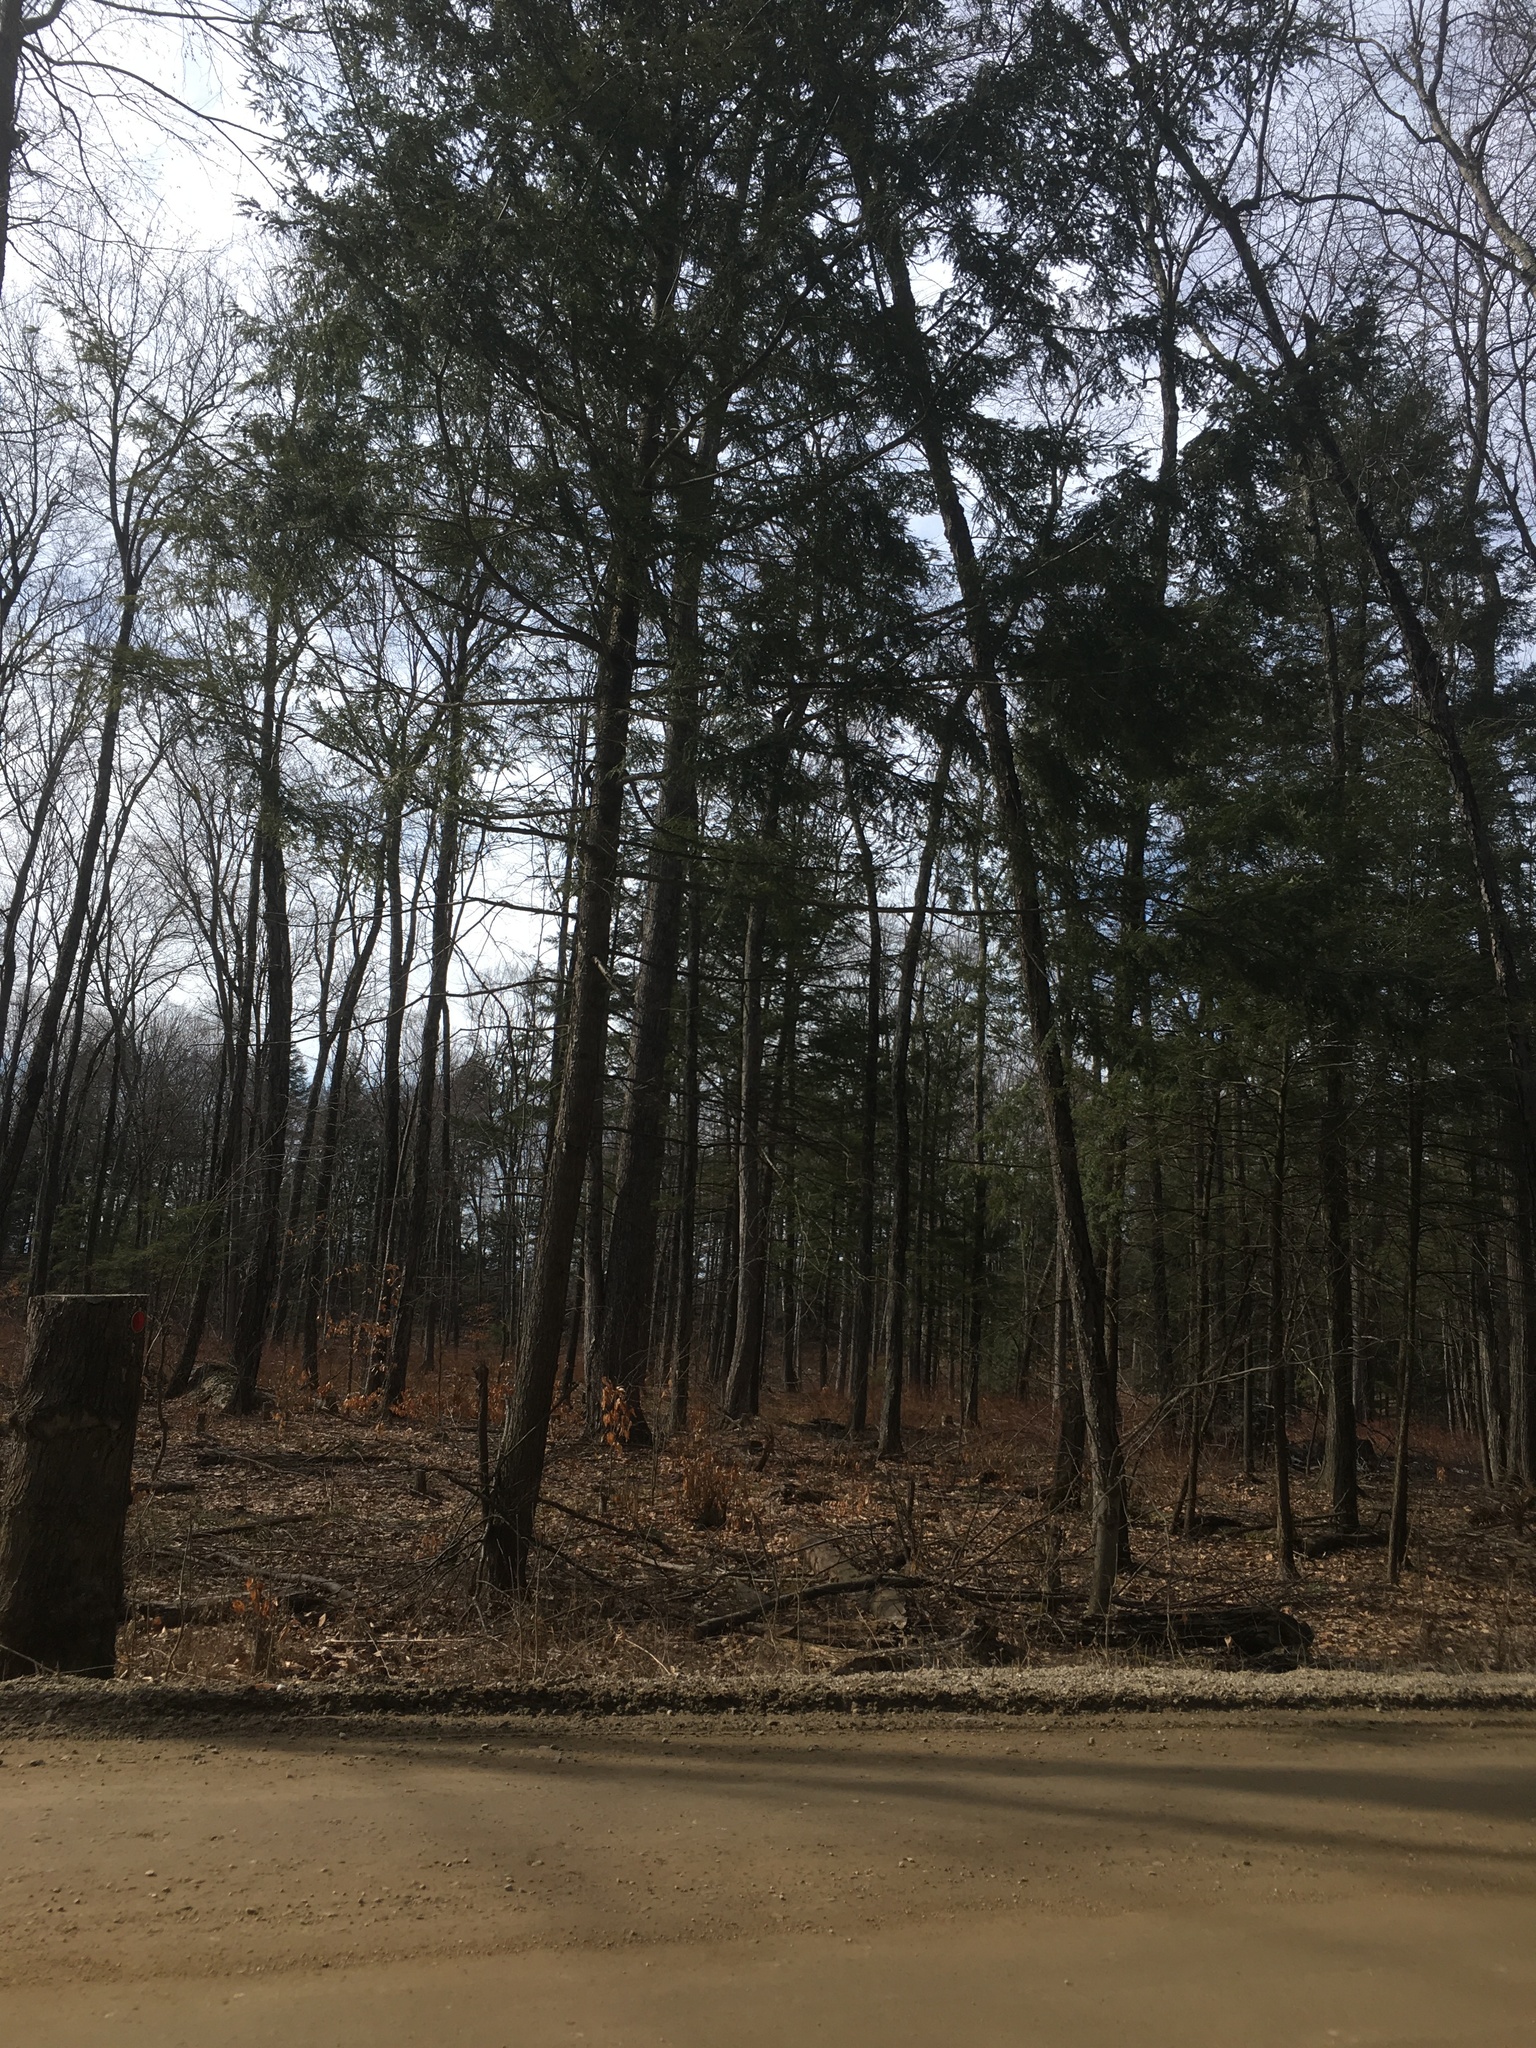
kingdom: Plantae
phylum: Tracheophyta
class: Pinopsida
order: Pinales
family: Pinaceae
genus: Tsuga
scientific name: Tsuga canadensis
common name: Eastern hemlock
